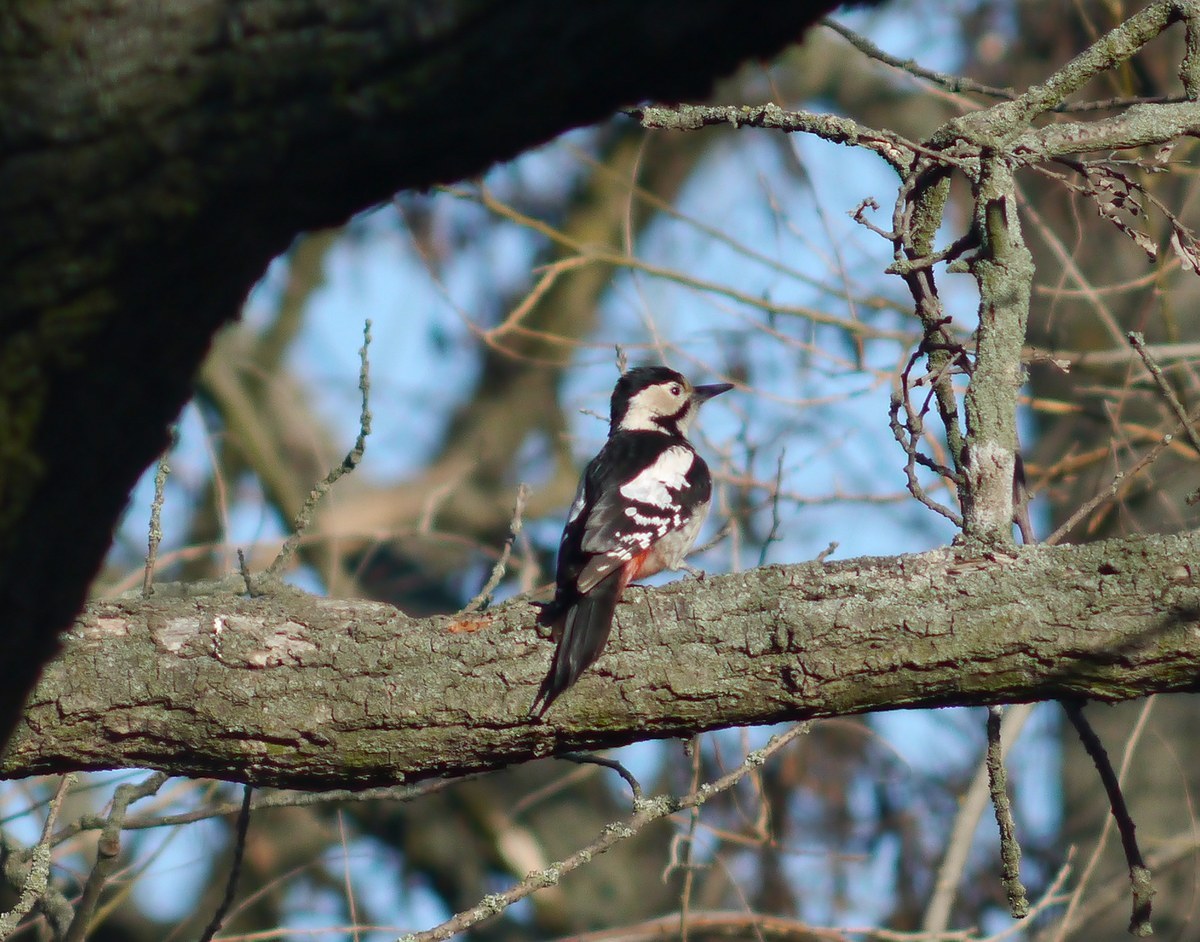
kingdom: Animalia
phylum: Chordata
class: Aves
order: Piciformes
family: Picidae
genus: Dendrocopos
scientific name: Dendrocopos syriacus
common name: Syrian woodpecker
